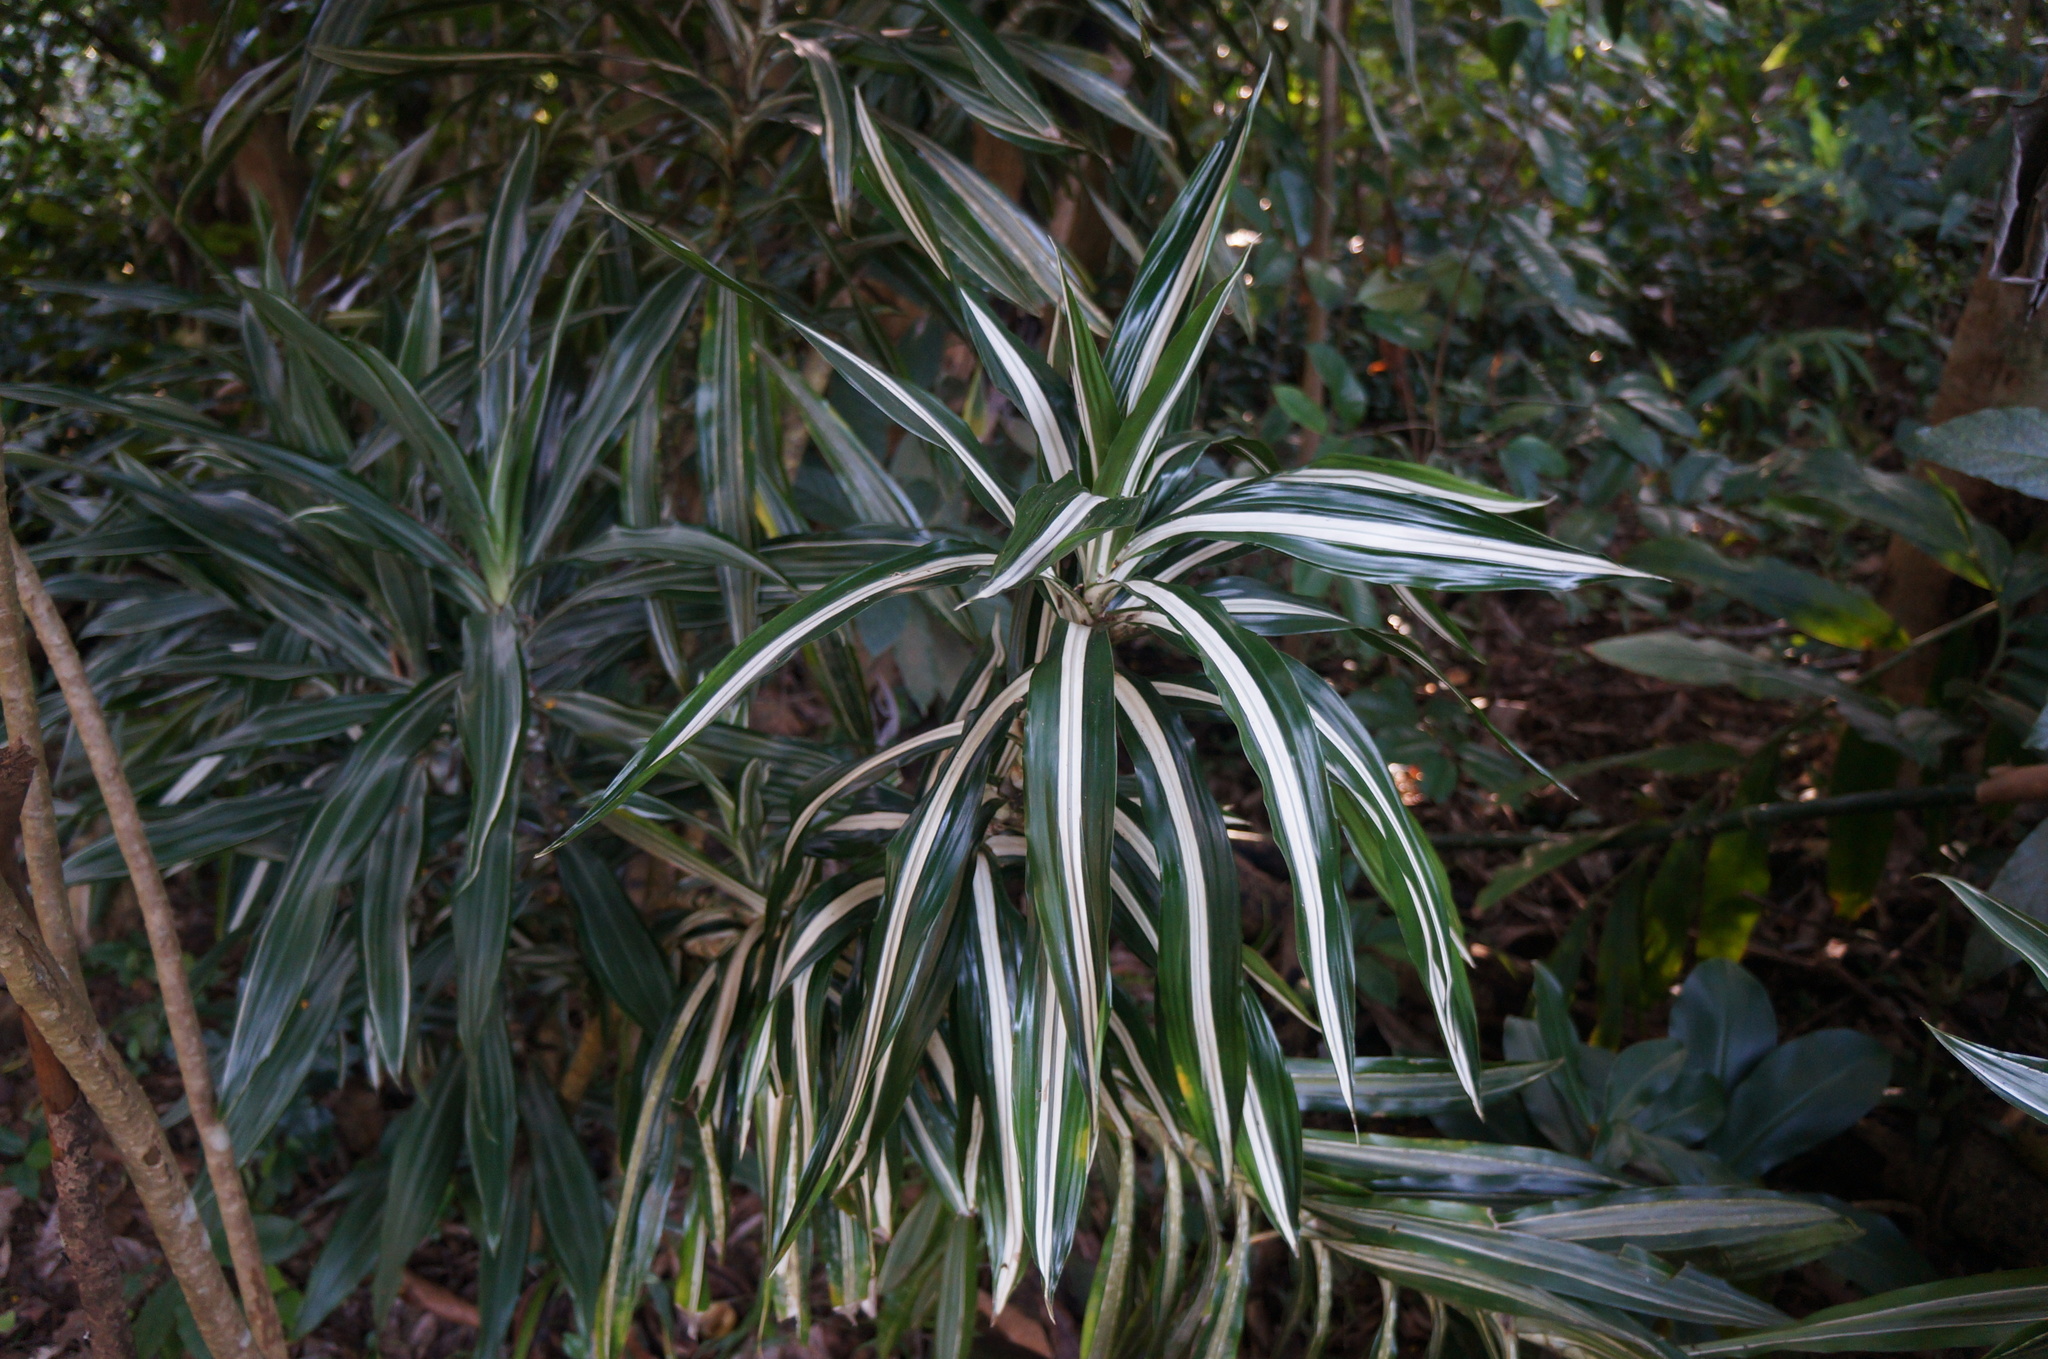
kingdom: Plantae
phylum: Tracheophyta
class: Liliopsida
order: Asparagales
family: Asparagaceae
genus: Dracaena
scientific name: Dracaena fragrans
